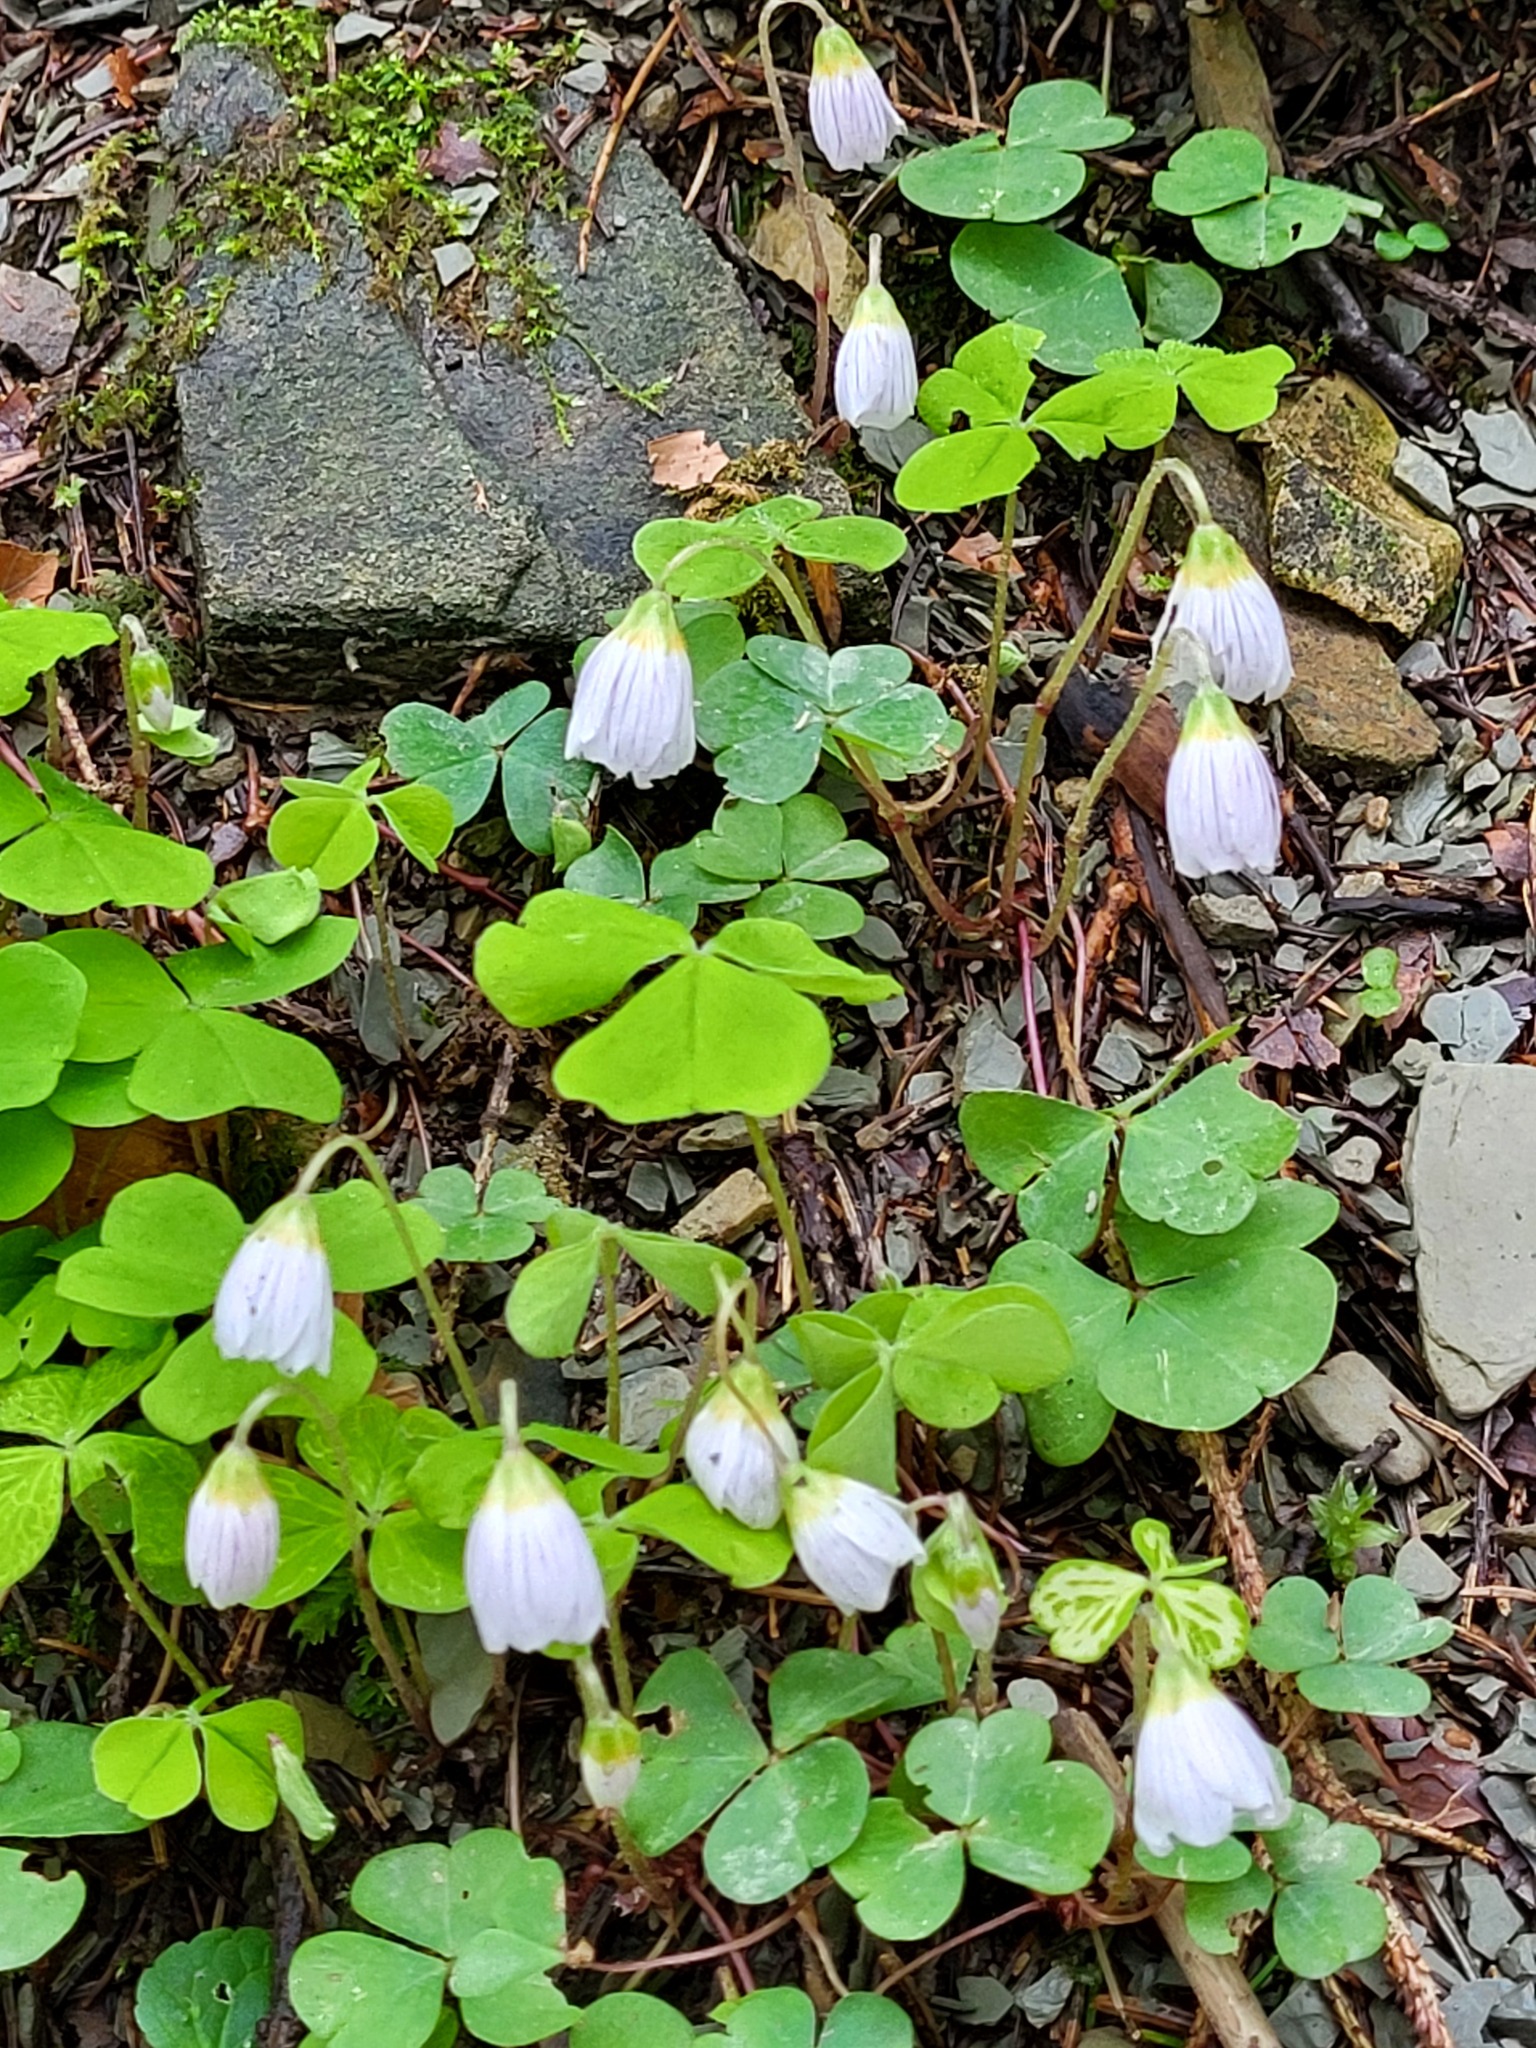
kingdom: Plantae
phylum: Tracheophyta
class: Magnoliopsida
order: Oxalidales
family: Oxalidaceae
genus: Oxalis
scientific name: Oxalis acetosella
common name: Wood-sorrel
